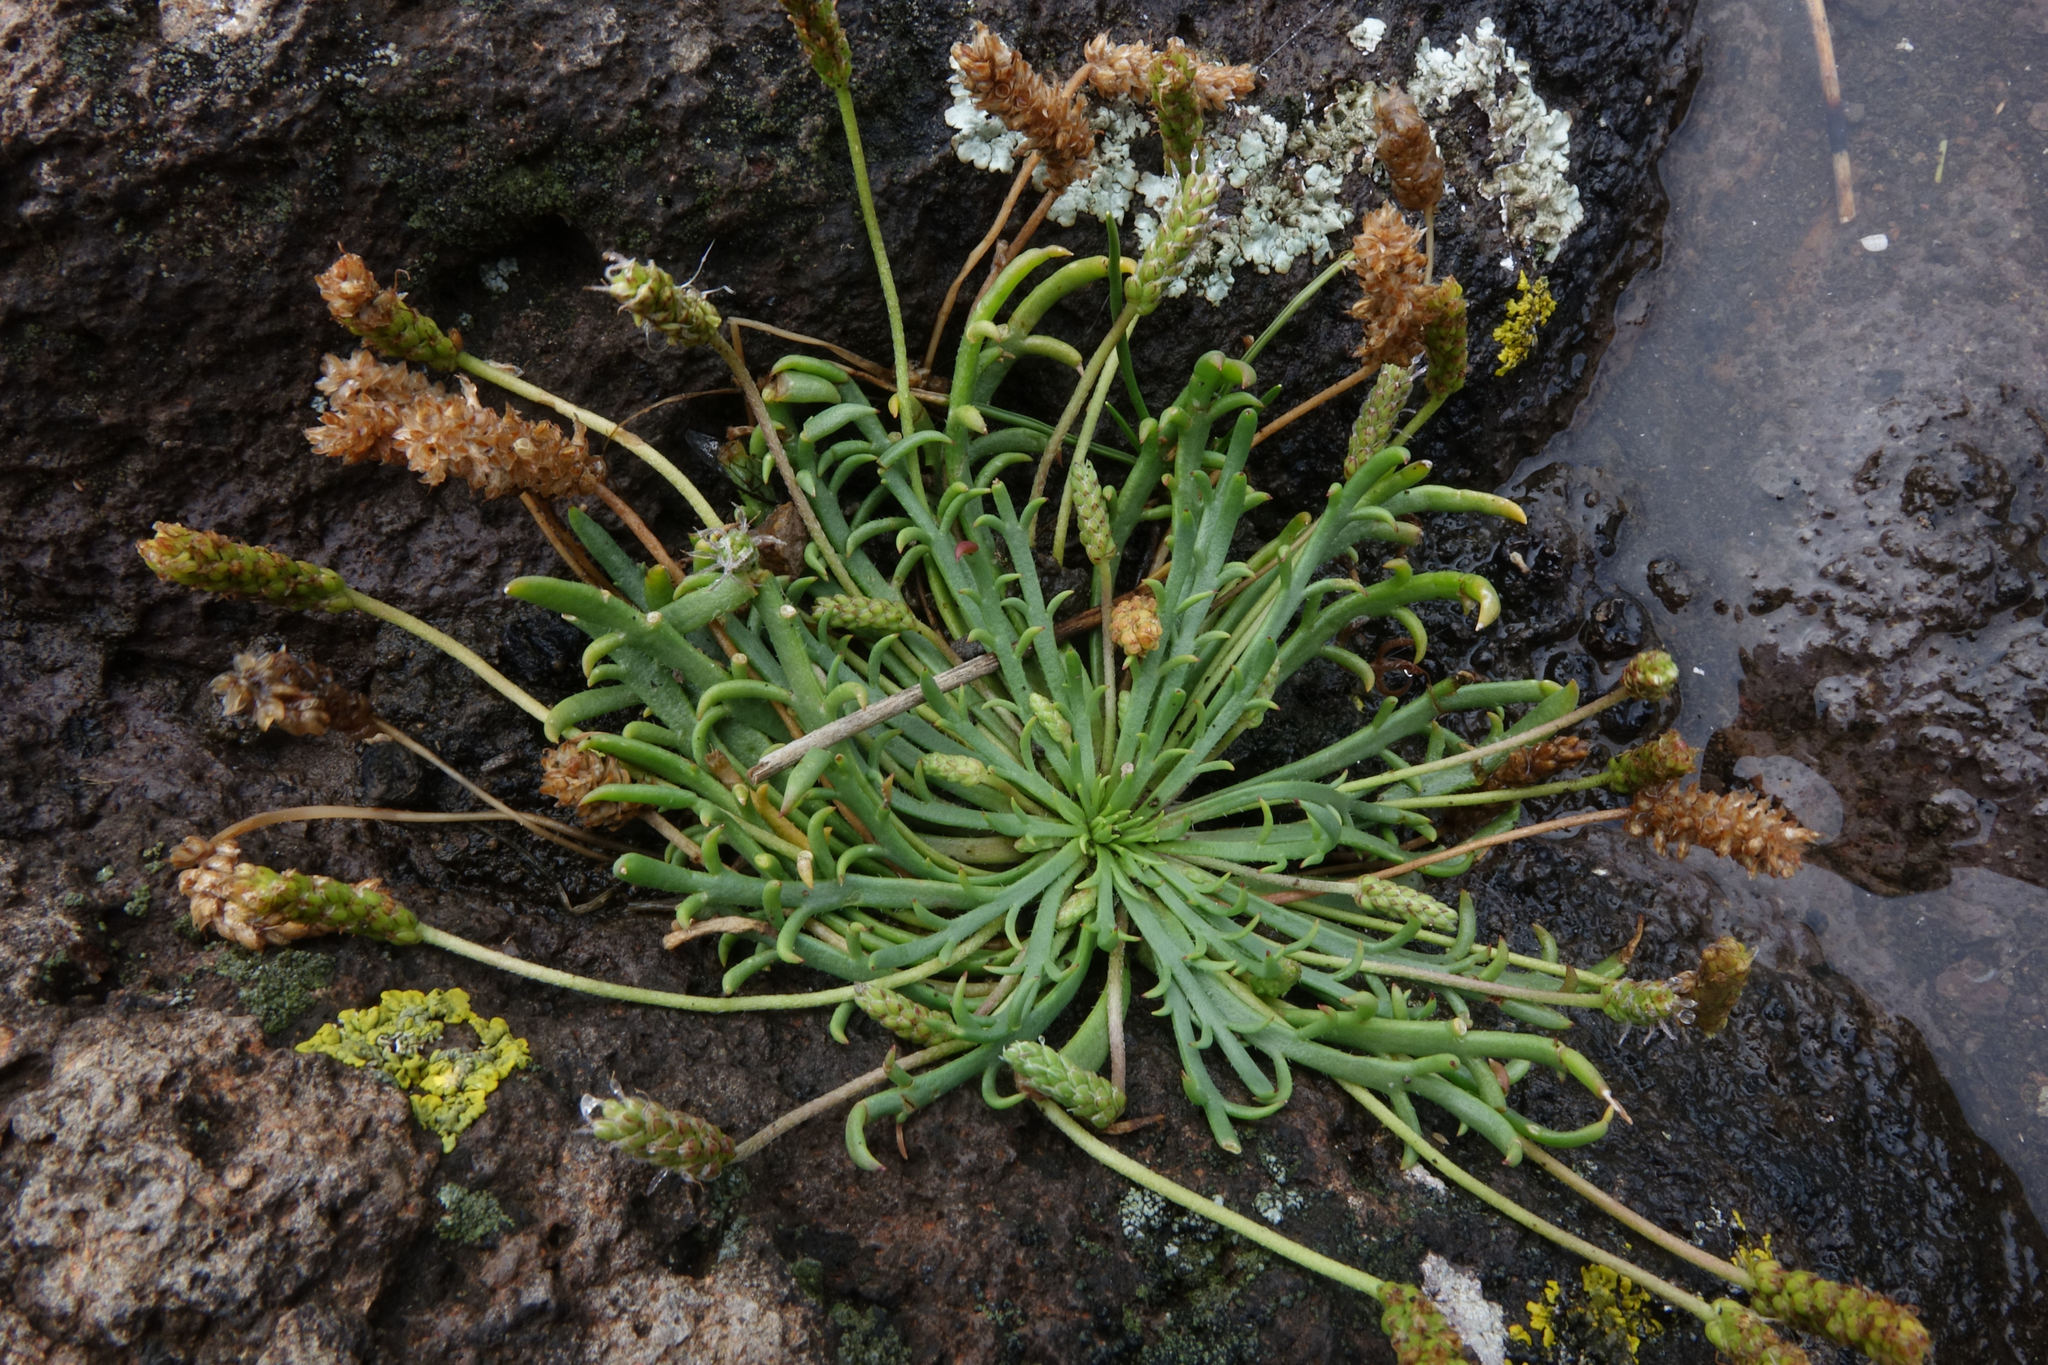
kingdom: Plantae
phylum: Tracheophyta
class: Magnoliopsida
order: Lamiales
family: Plantaginaceae
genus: Plantago
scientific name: Plantago coronopus
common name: Buck's-horn plantain
